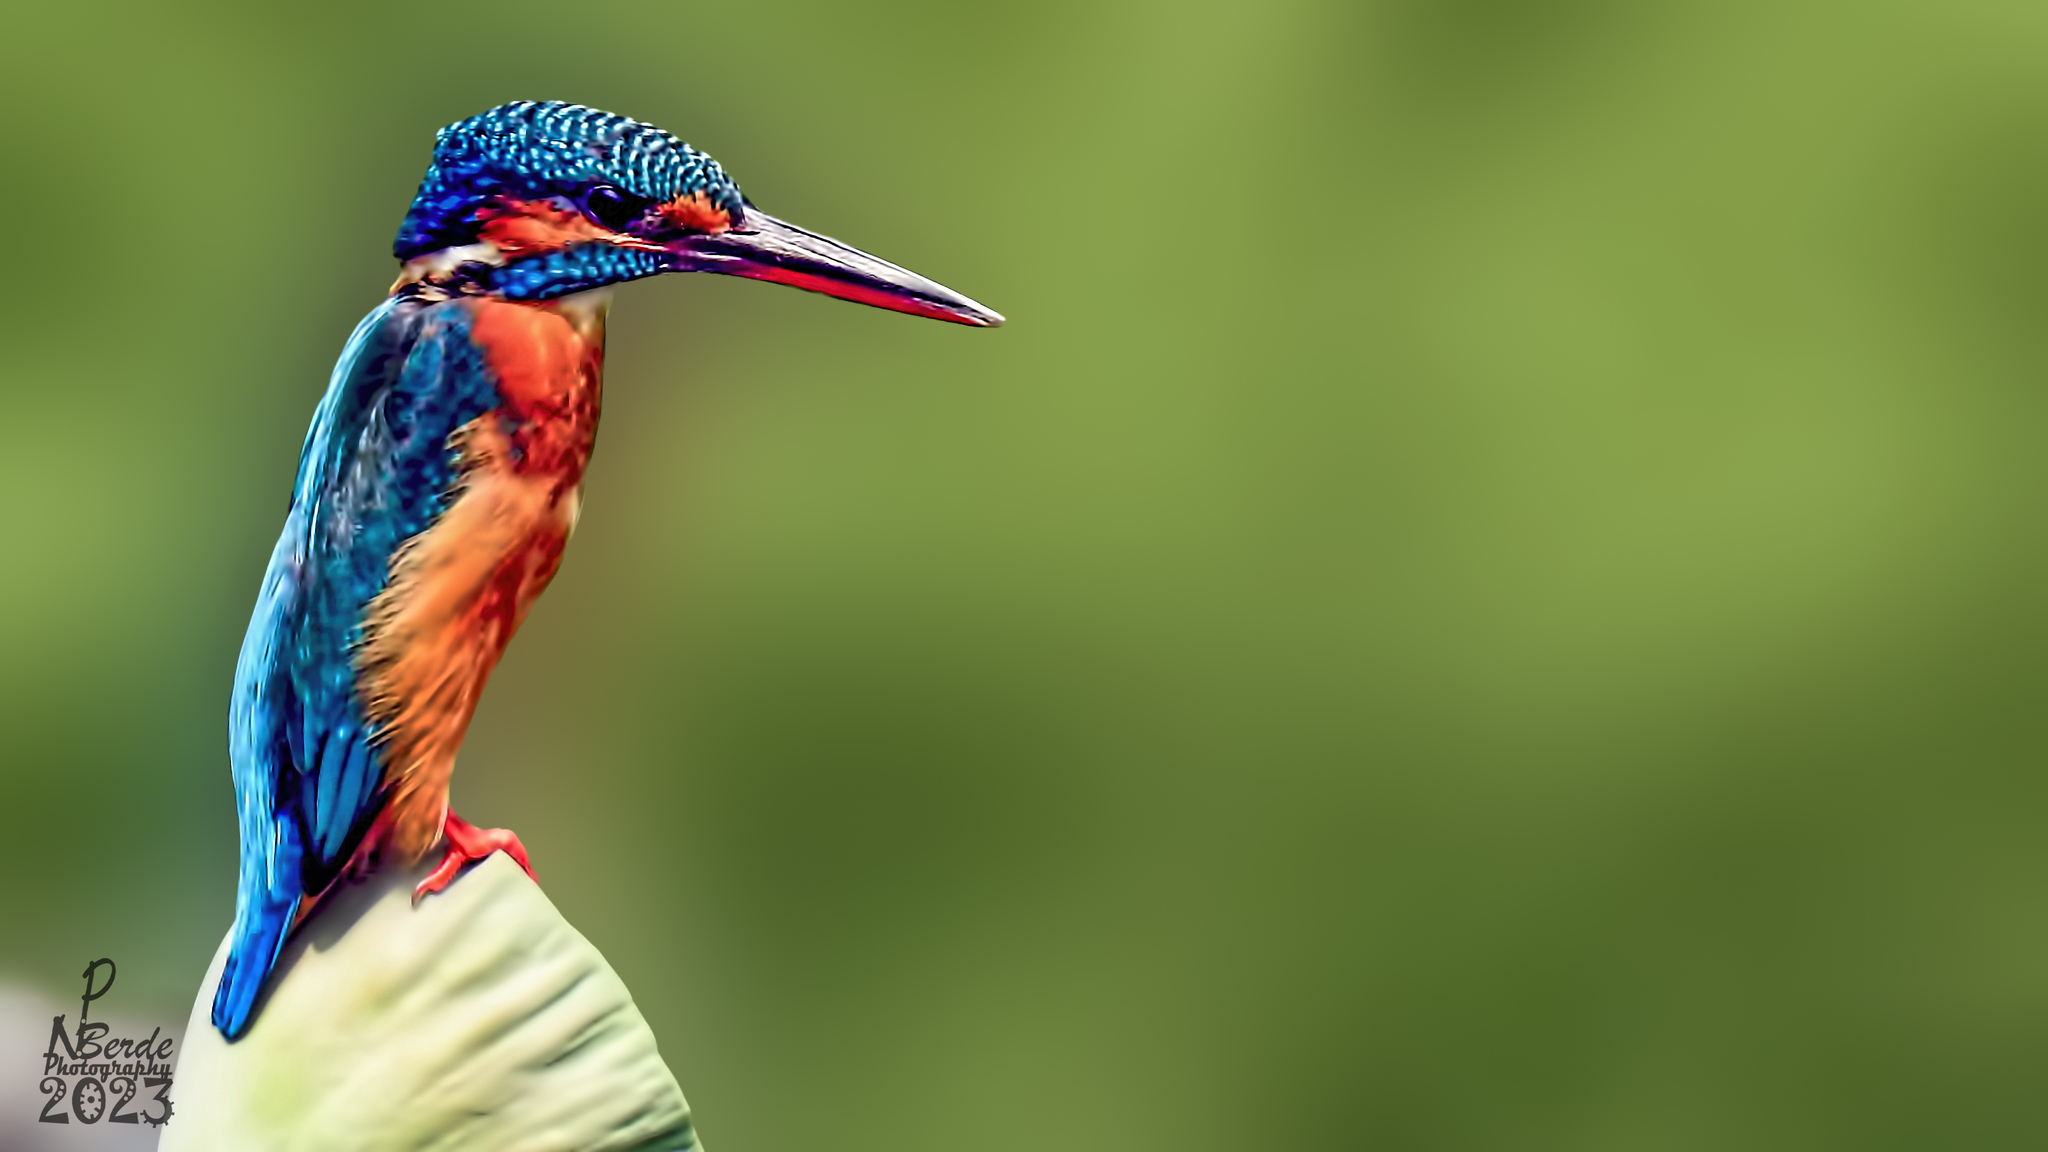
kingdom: Animalia
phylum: Chordata
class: Aves
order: Coraciiformes
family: Alcedinidae
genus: Alcedo
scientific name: Alcedo atthis
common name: Common kingfisher
